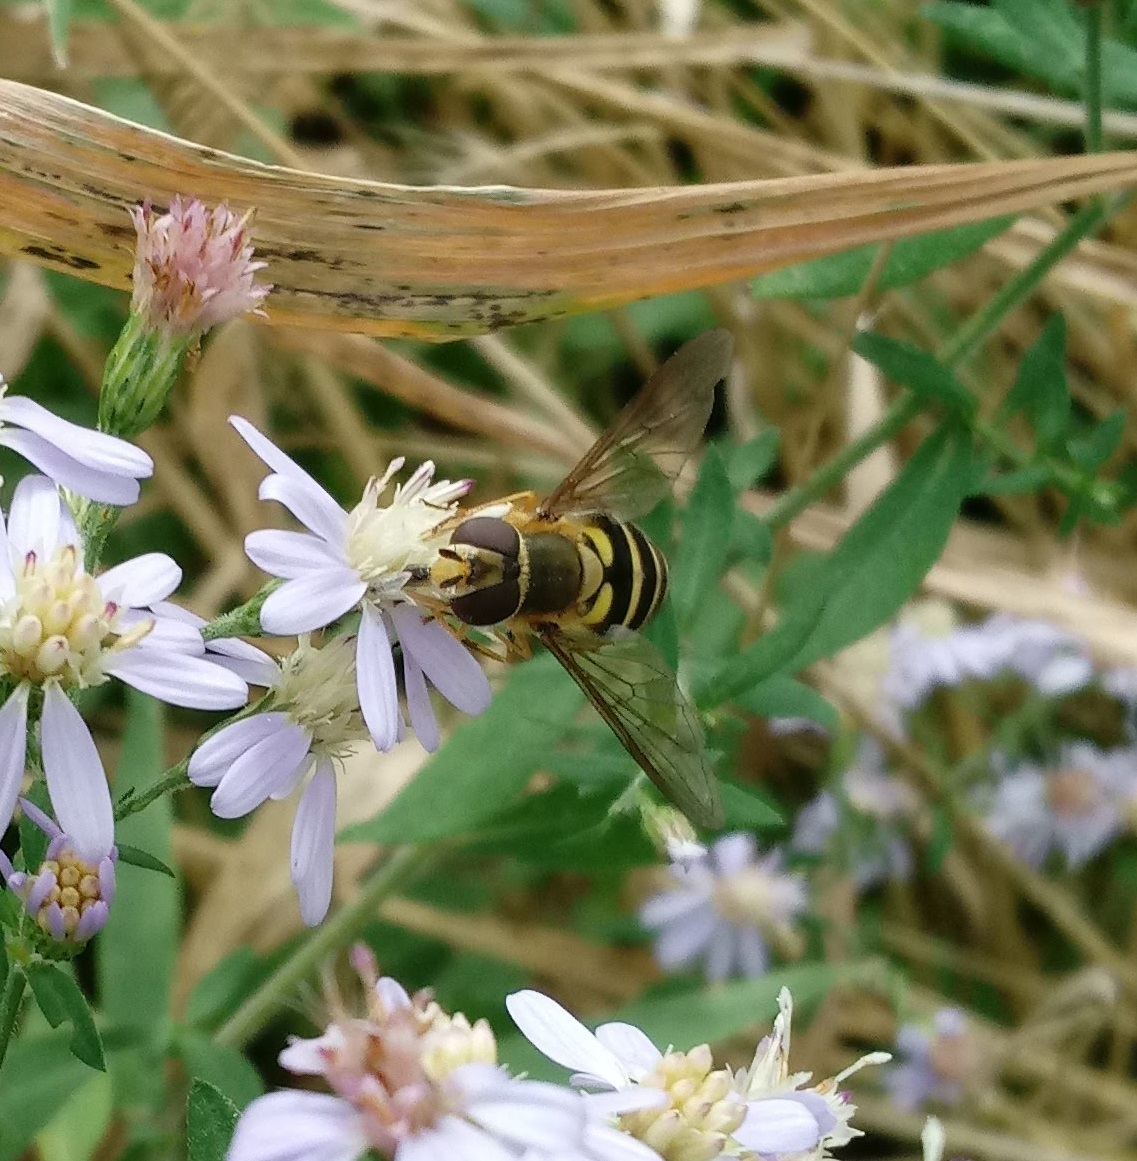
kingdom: Animalia
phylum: Arthropoda
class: Insecta
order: Diptera
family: Syrphidae
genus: Syrphus
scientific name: Syrphus
